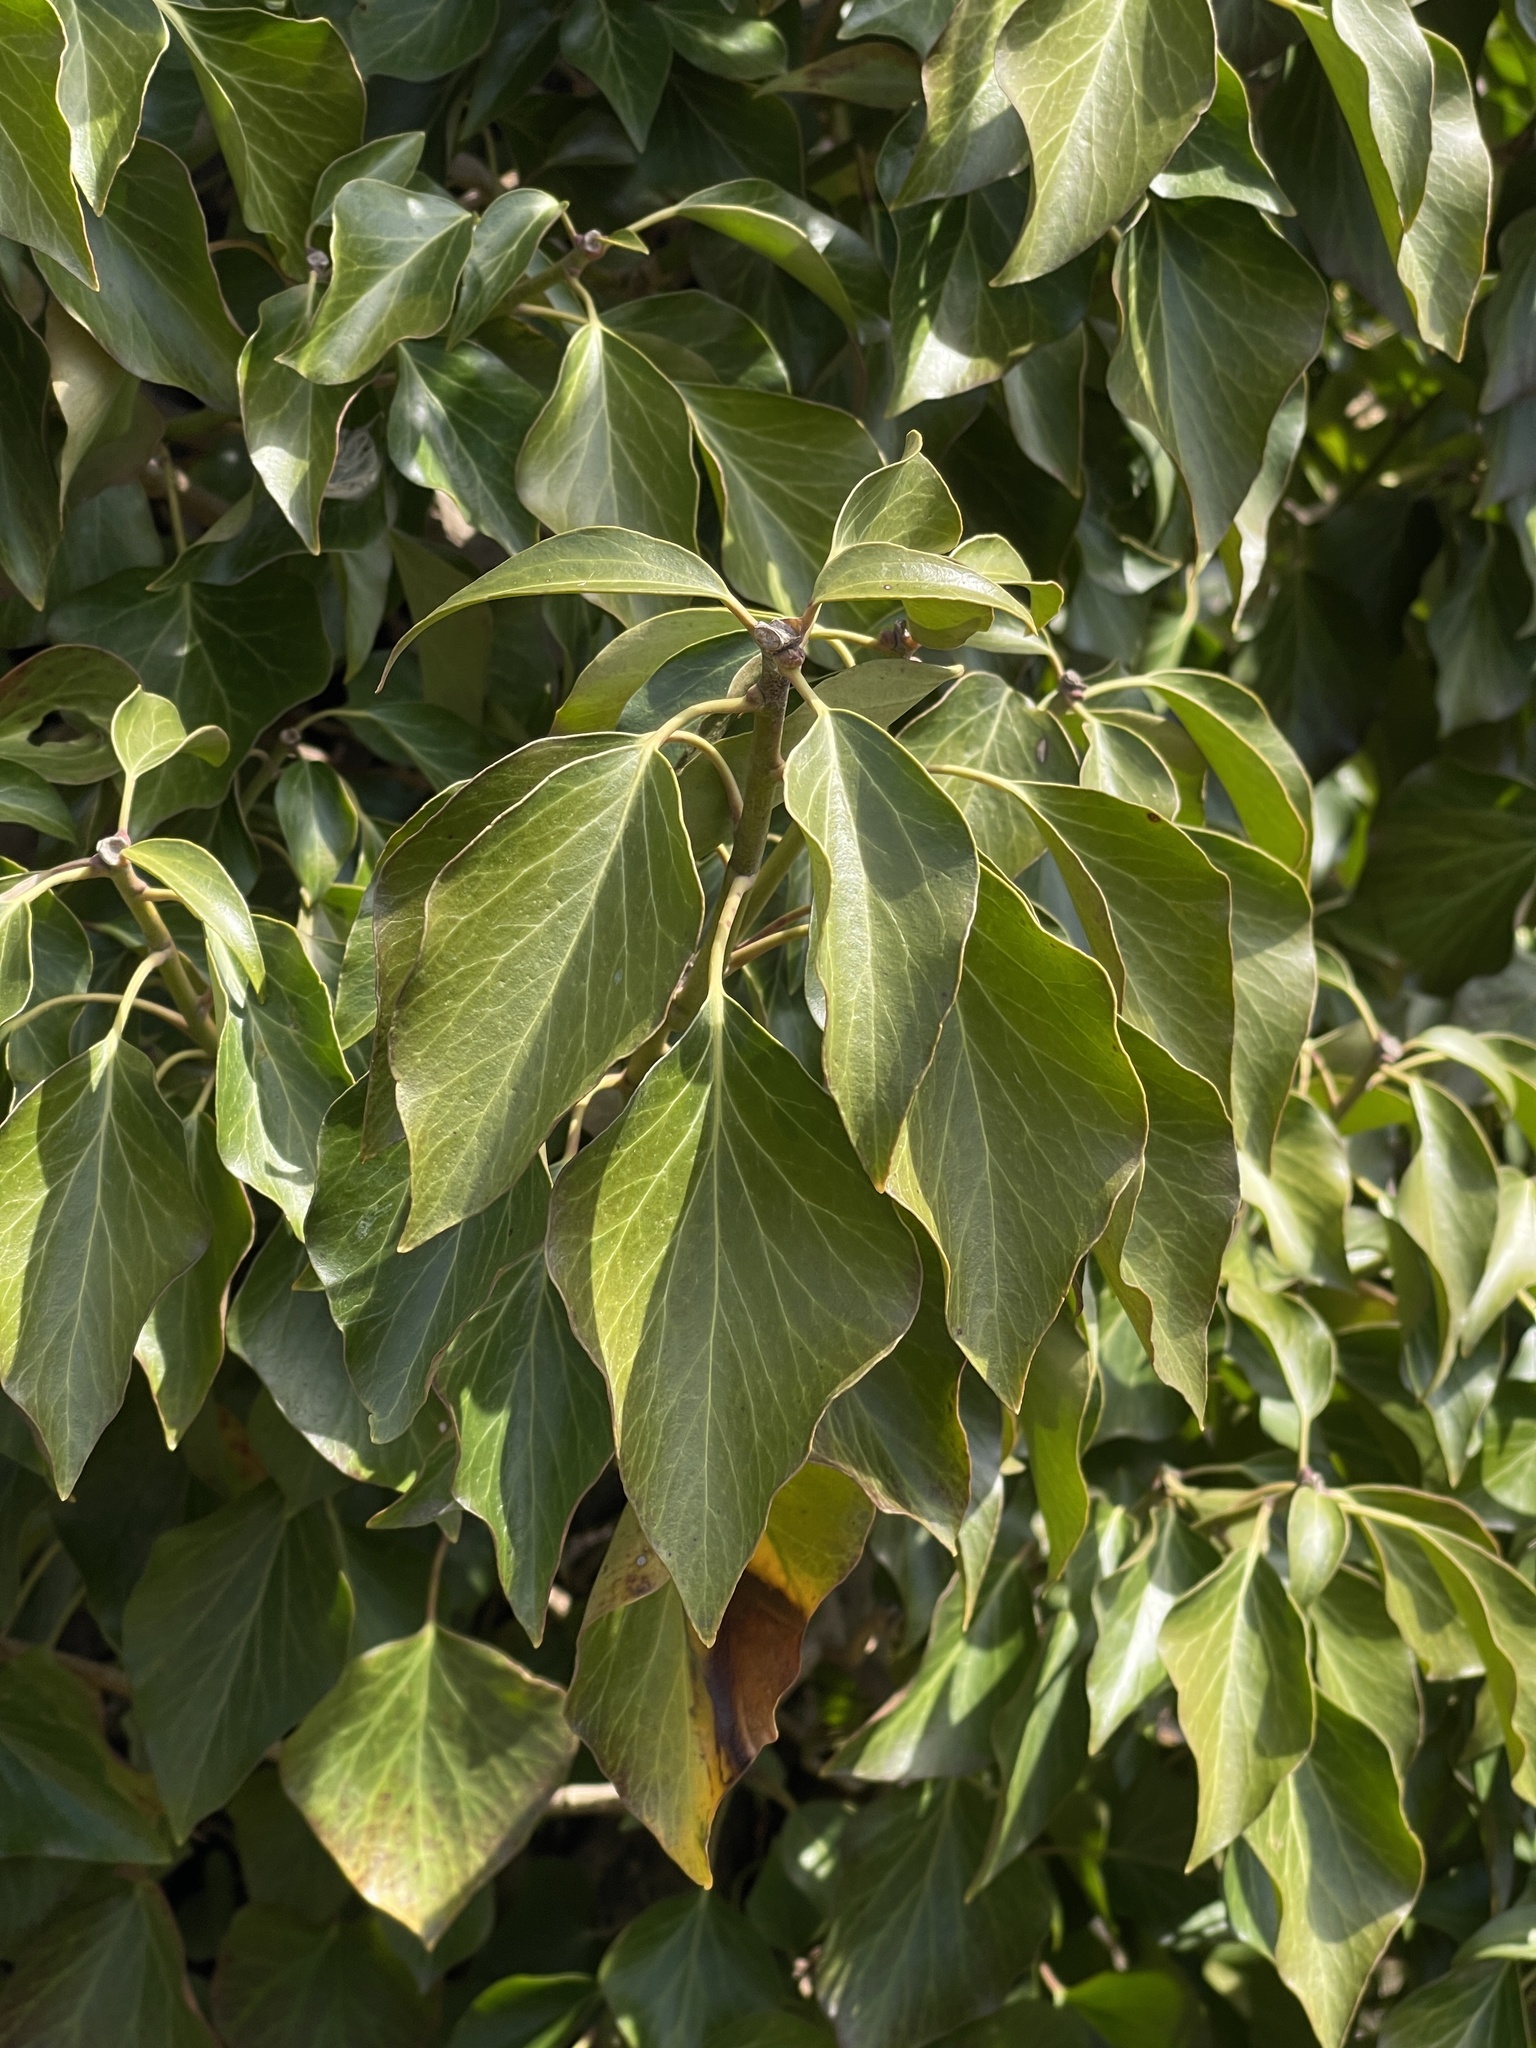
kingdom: Plantae
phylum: Tracheophyta
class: Magnoliopsida
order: Apiales
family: Araliaceae
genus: Hedera
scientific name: Hedera helix
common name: Ivy
